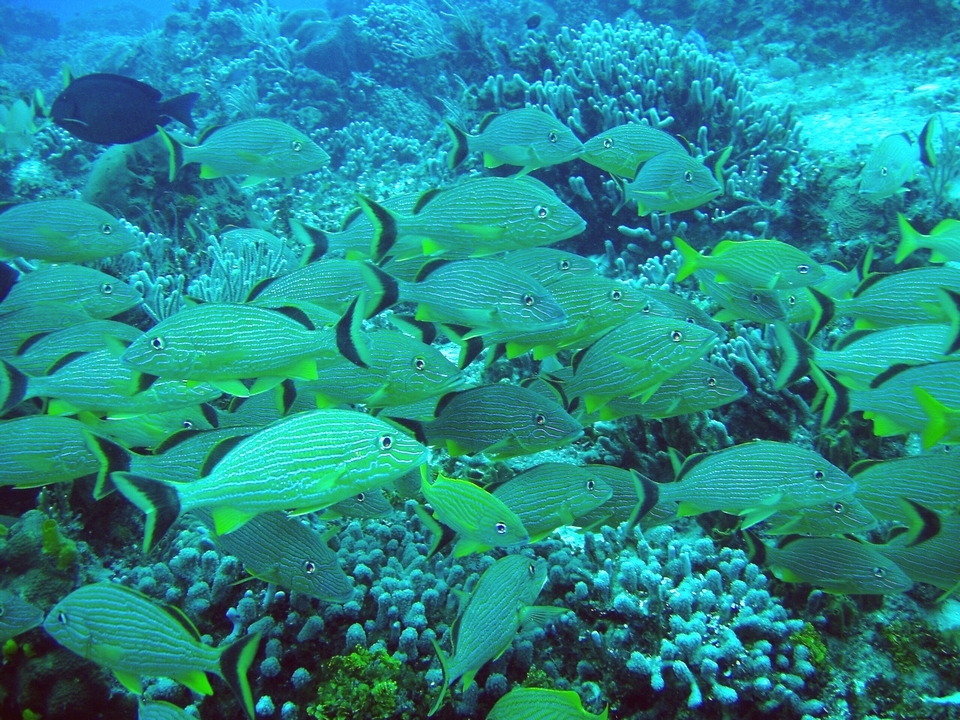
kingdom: Animalia
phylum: Chordata
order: Perciformes
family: Haemulidae
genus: Haemulon
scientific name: Haemulon sciurus
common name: Bluestriped grunt
